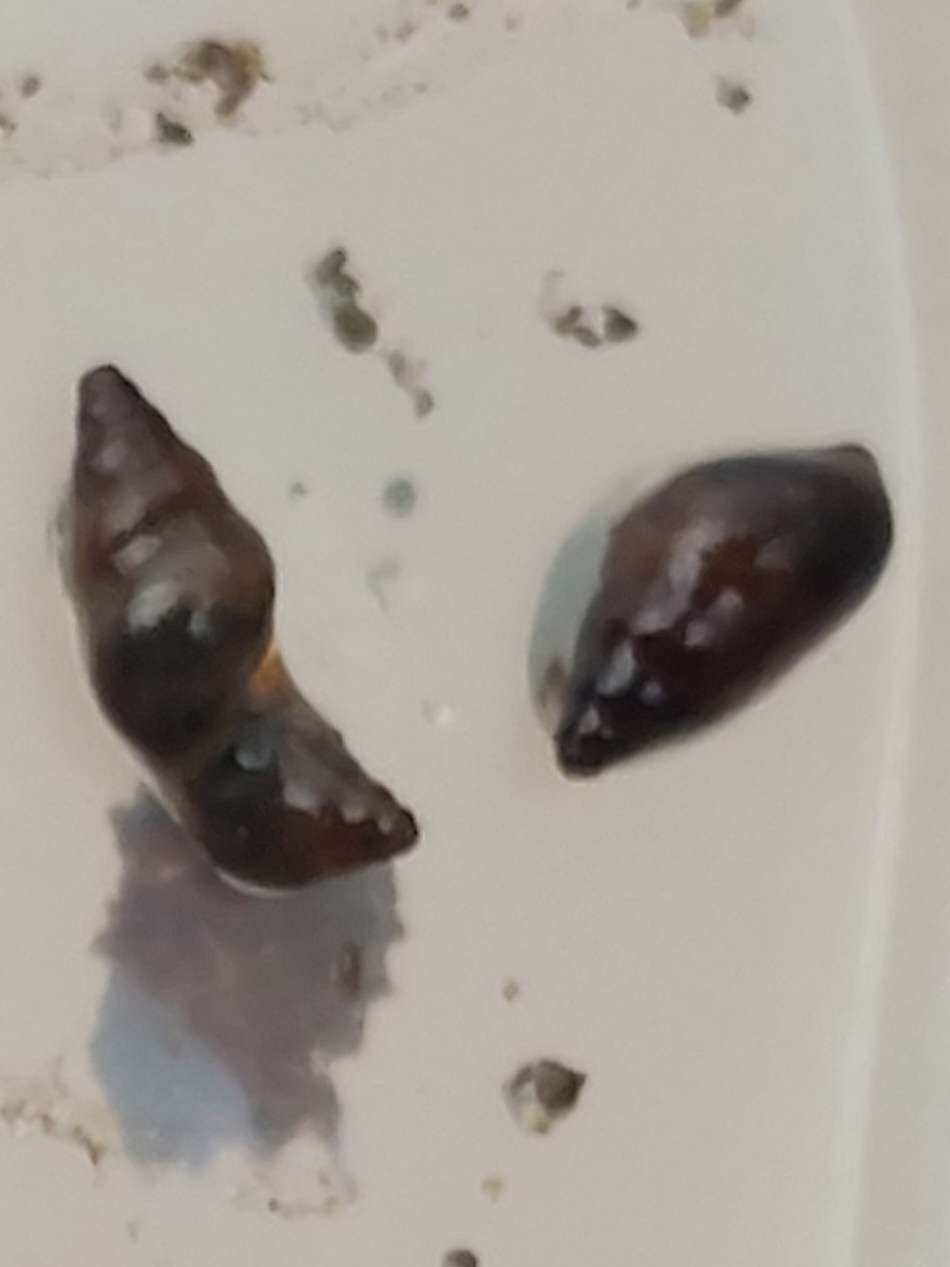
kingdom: Animalia
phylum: Mollusca
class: Gastropoda
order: Littorinimorpha
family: Tateidae
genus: Potamopyrgus
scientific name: Potamopyrgus antipodarum
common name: Jenkins' spire snail
